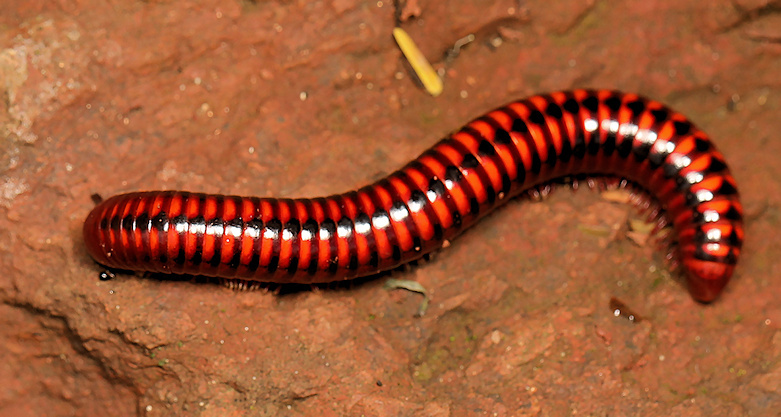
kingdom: Animalia
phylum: Arthropoda
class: Diplopoda
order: Spirobolida
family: Pachybolidae
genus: Centrobolus
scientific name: Centrobolus inyanganus
